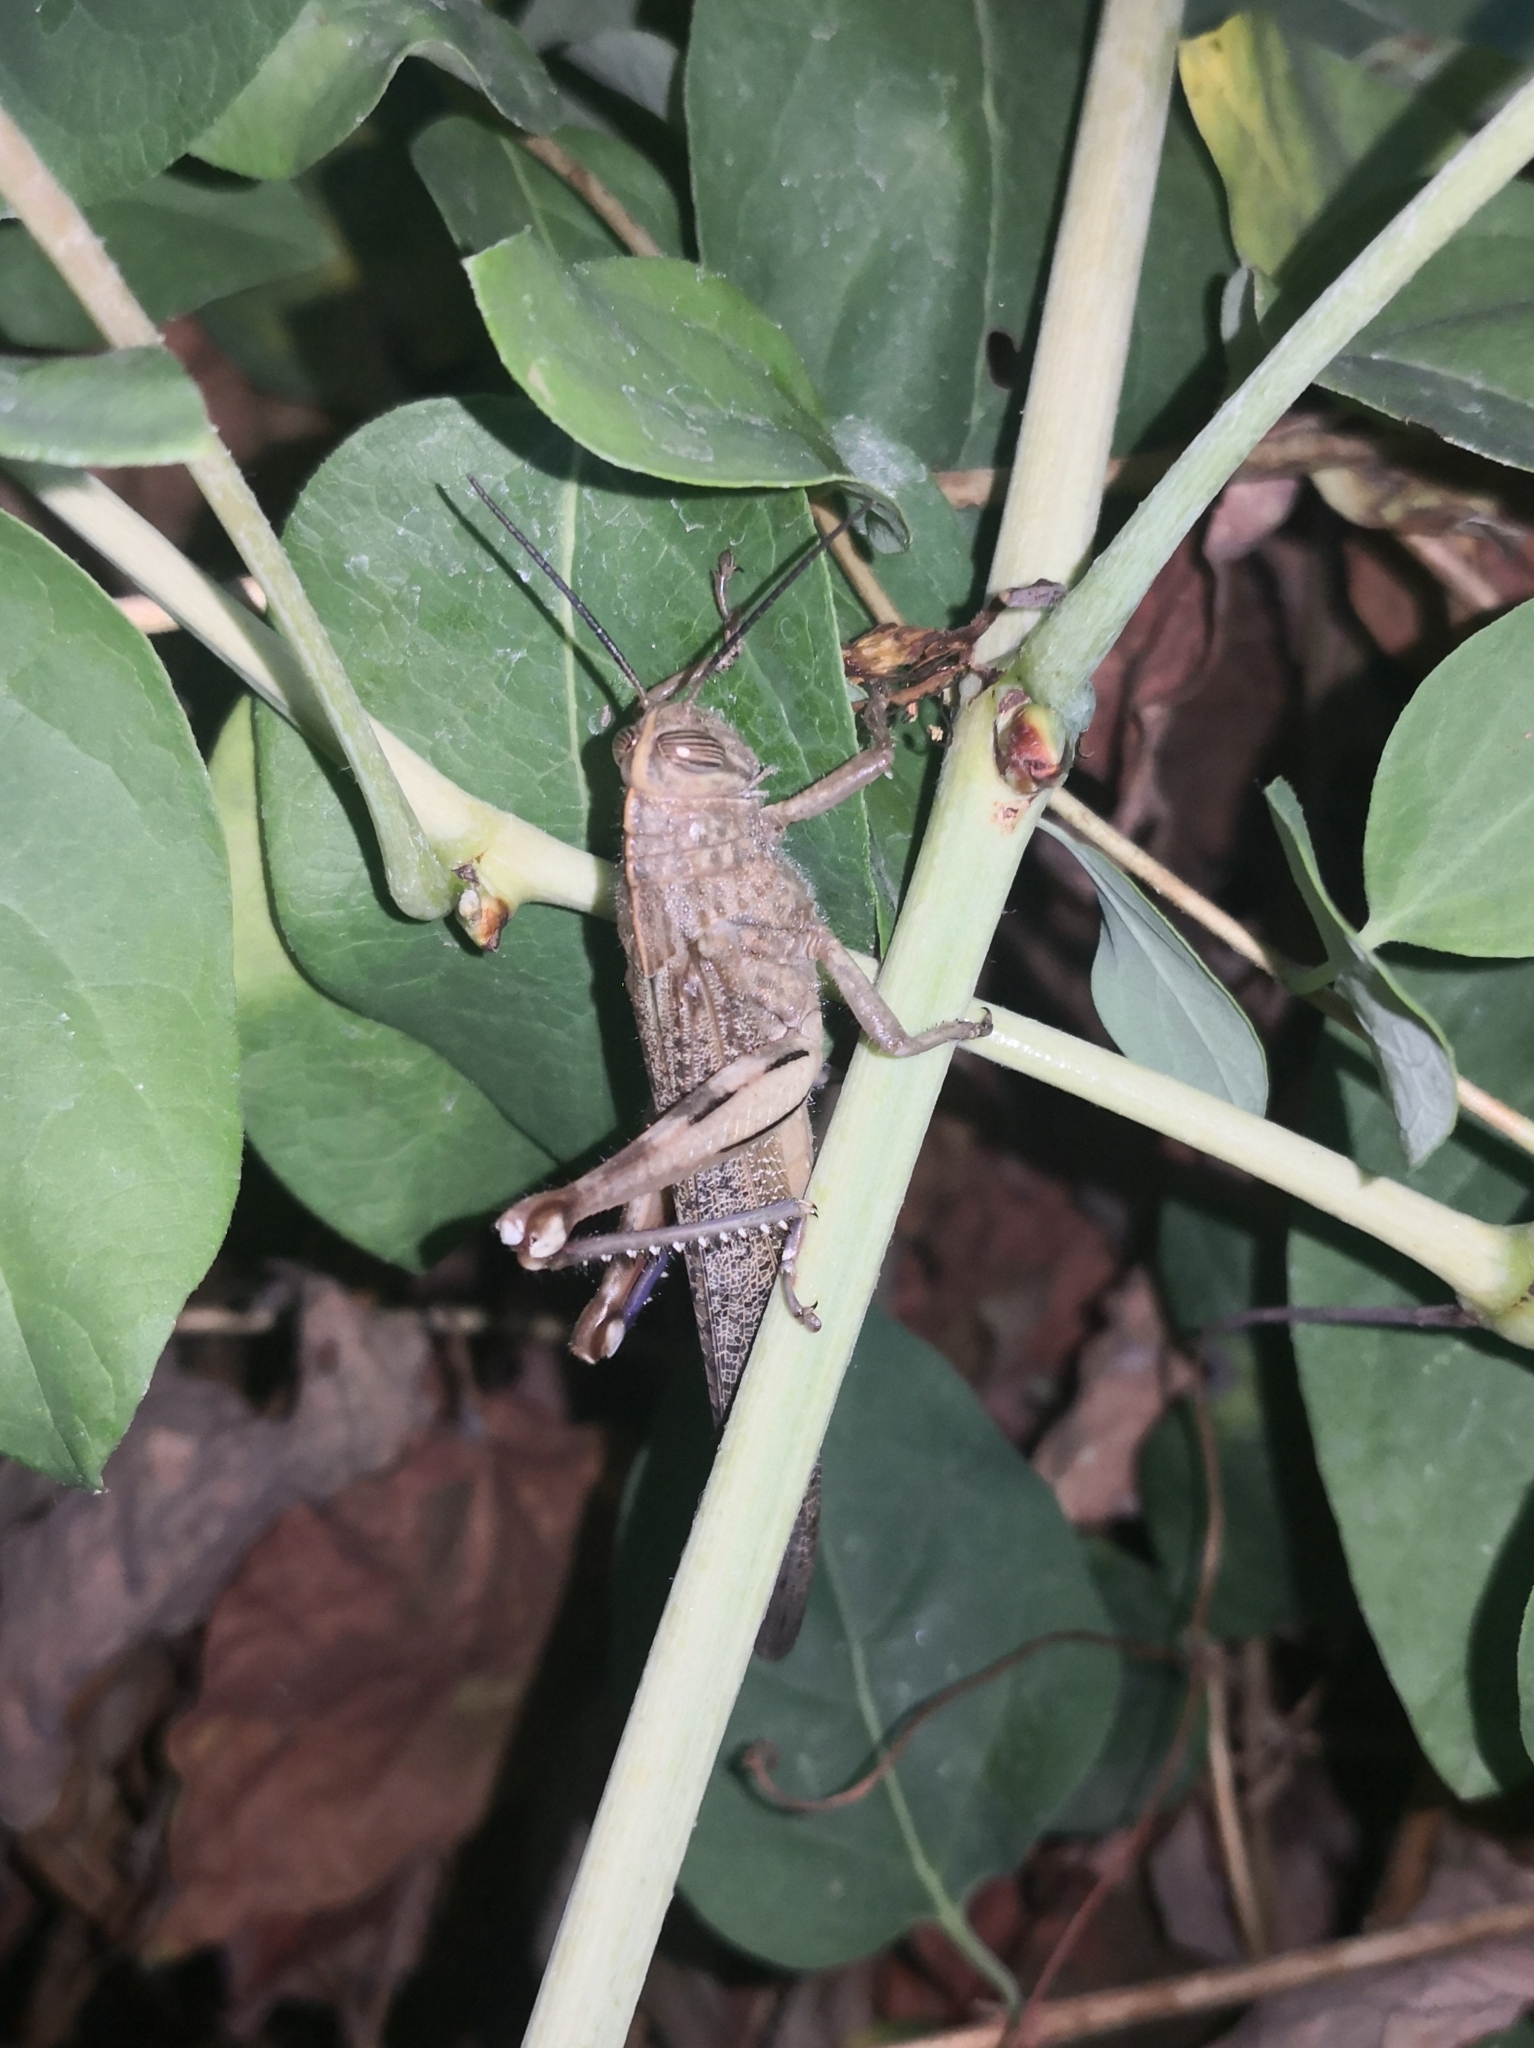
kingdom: Animalia
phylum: Arthropoda
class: Insecta
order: Orthoptera
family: Acrididae
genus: Anacridium
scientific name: Anacridium aegyptium
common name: Egyptian grasshopper
